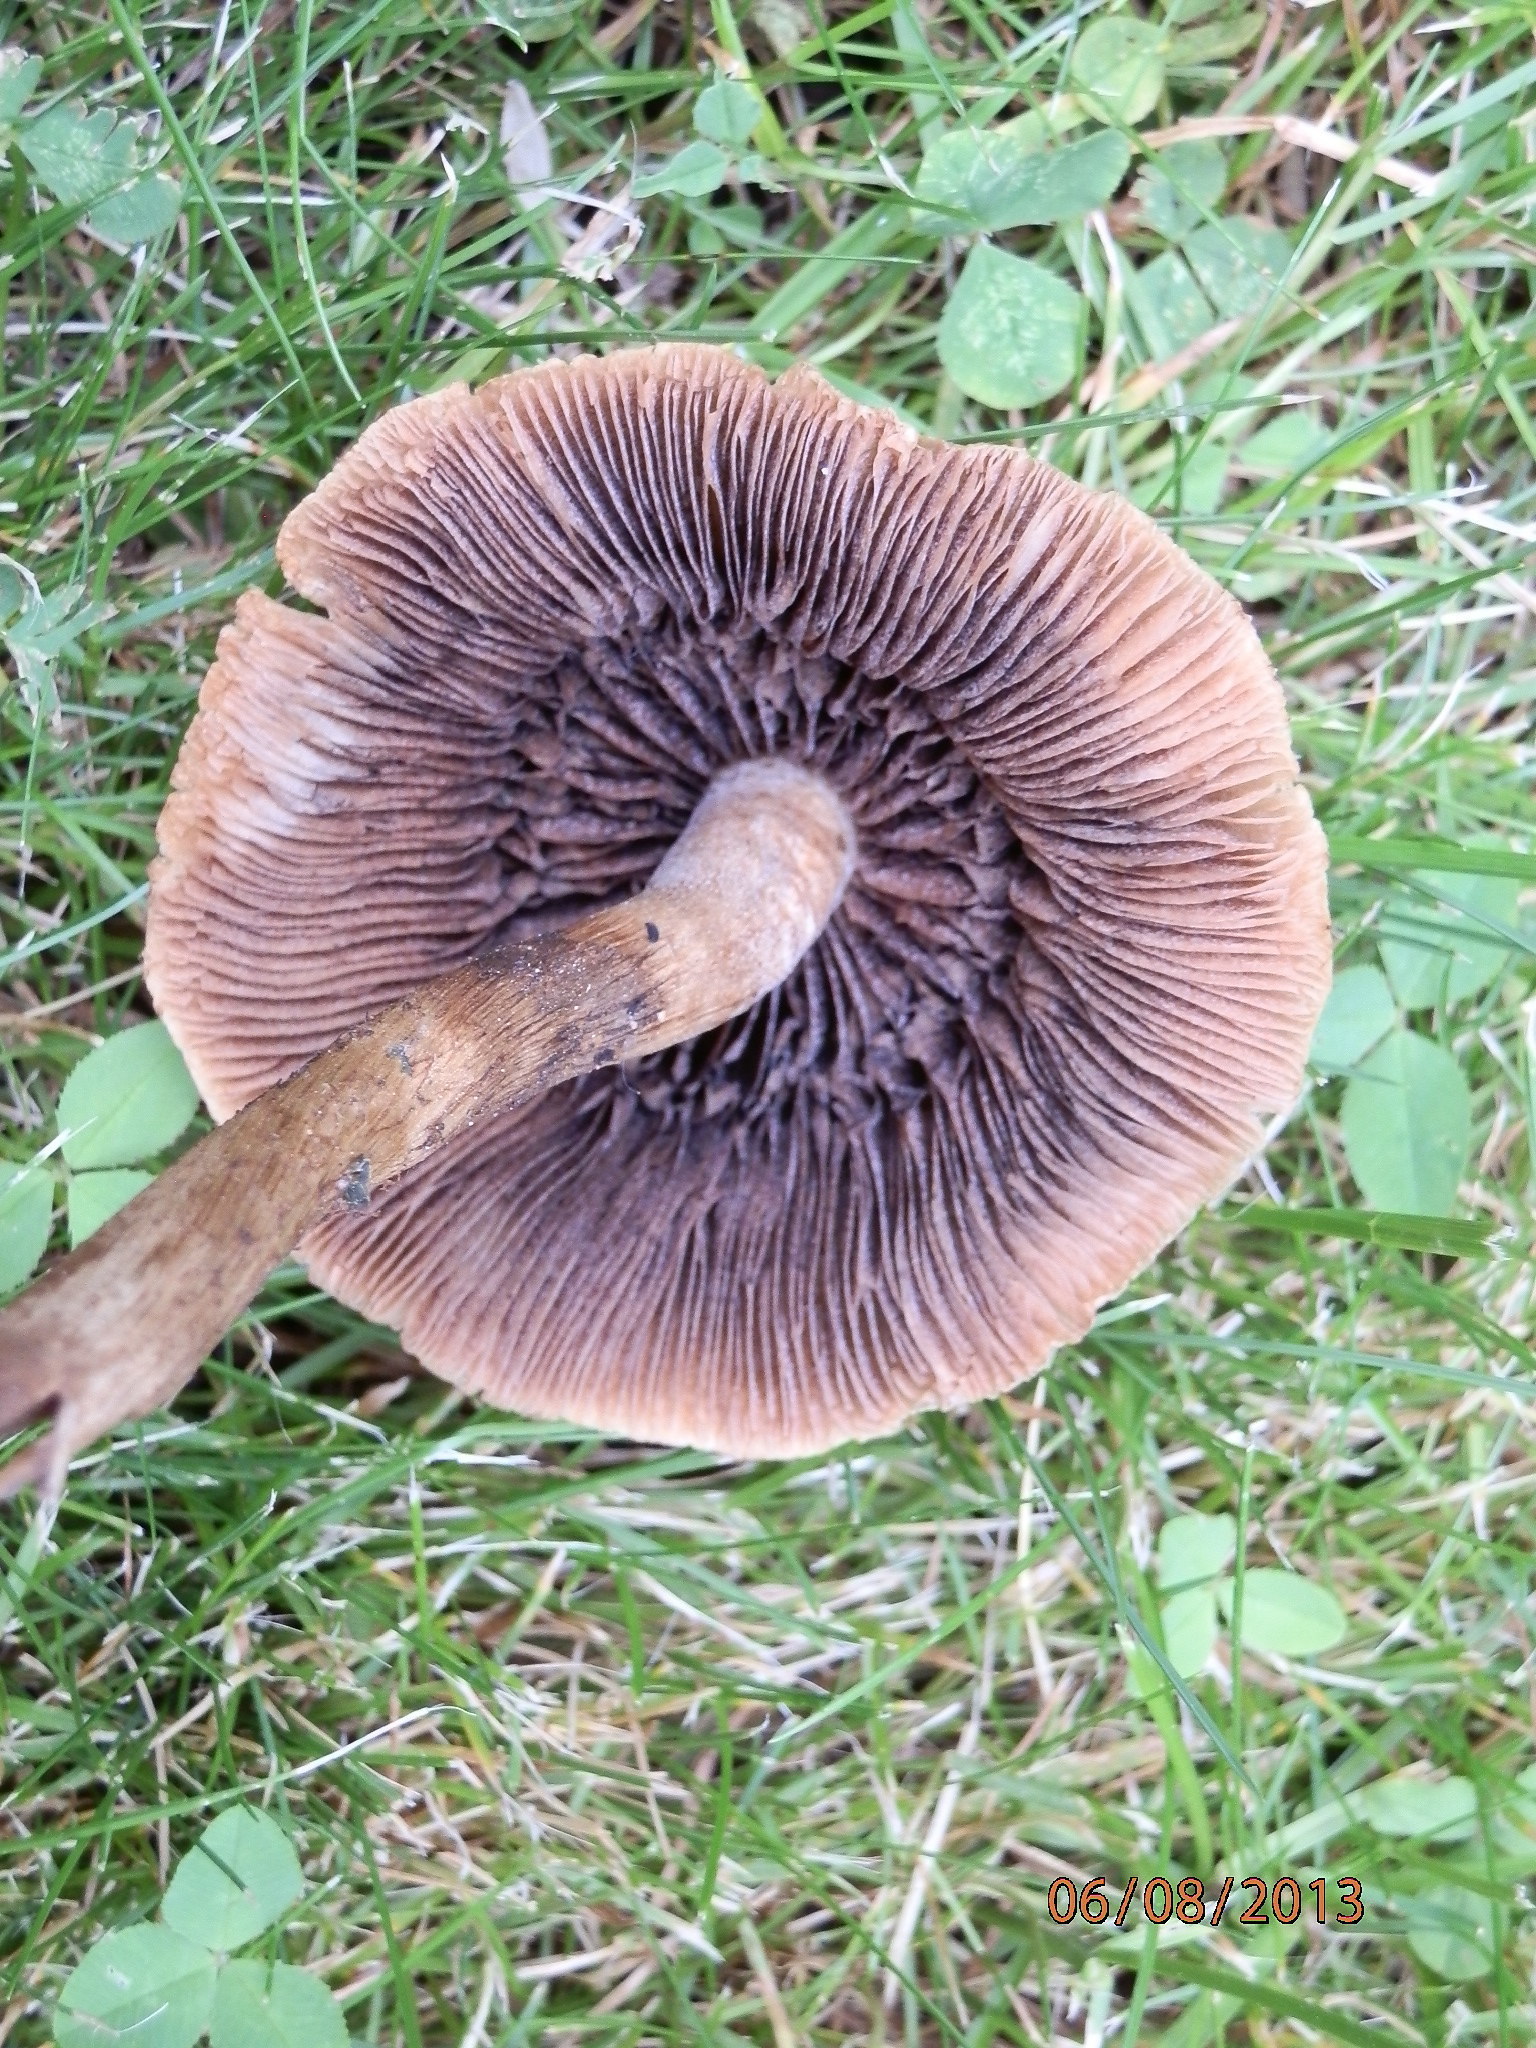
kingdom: Fungi
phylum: Basidiomycota
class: Agaricomycetes
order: Agaricales
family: Psathyrellaceae
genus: Lacrymaria
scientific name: Lacrymaria lacrymabunda
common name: Weeping widow
